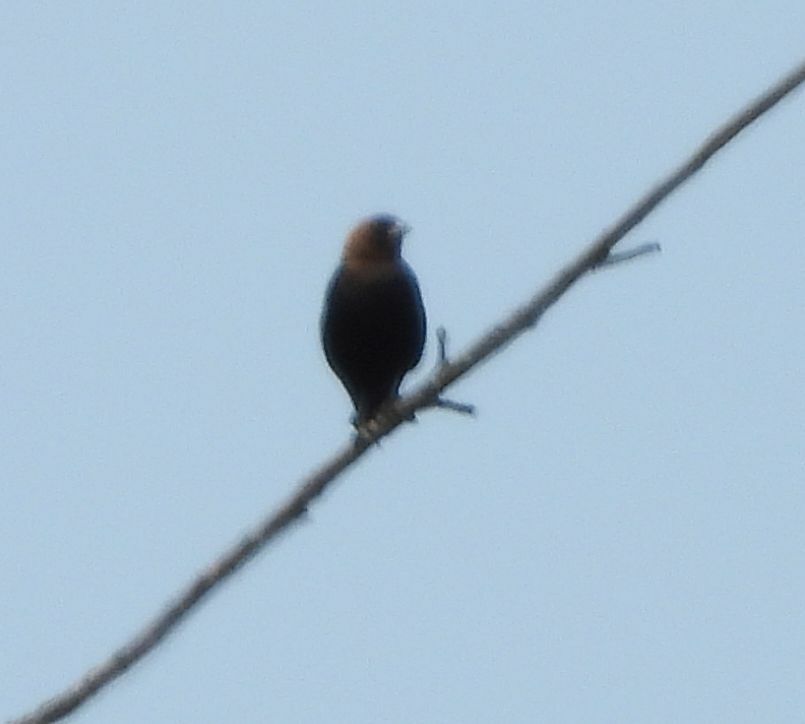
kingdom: Animalia
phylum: Chordata
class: Aves
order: Passeriformes
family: Icteridae
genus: Molothrus
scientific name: Molothrus ater
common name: Brown-headed cowbird
